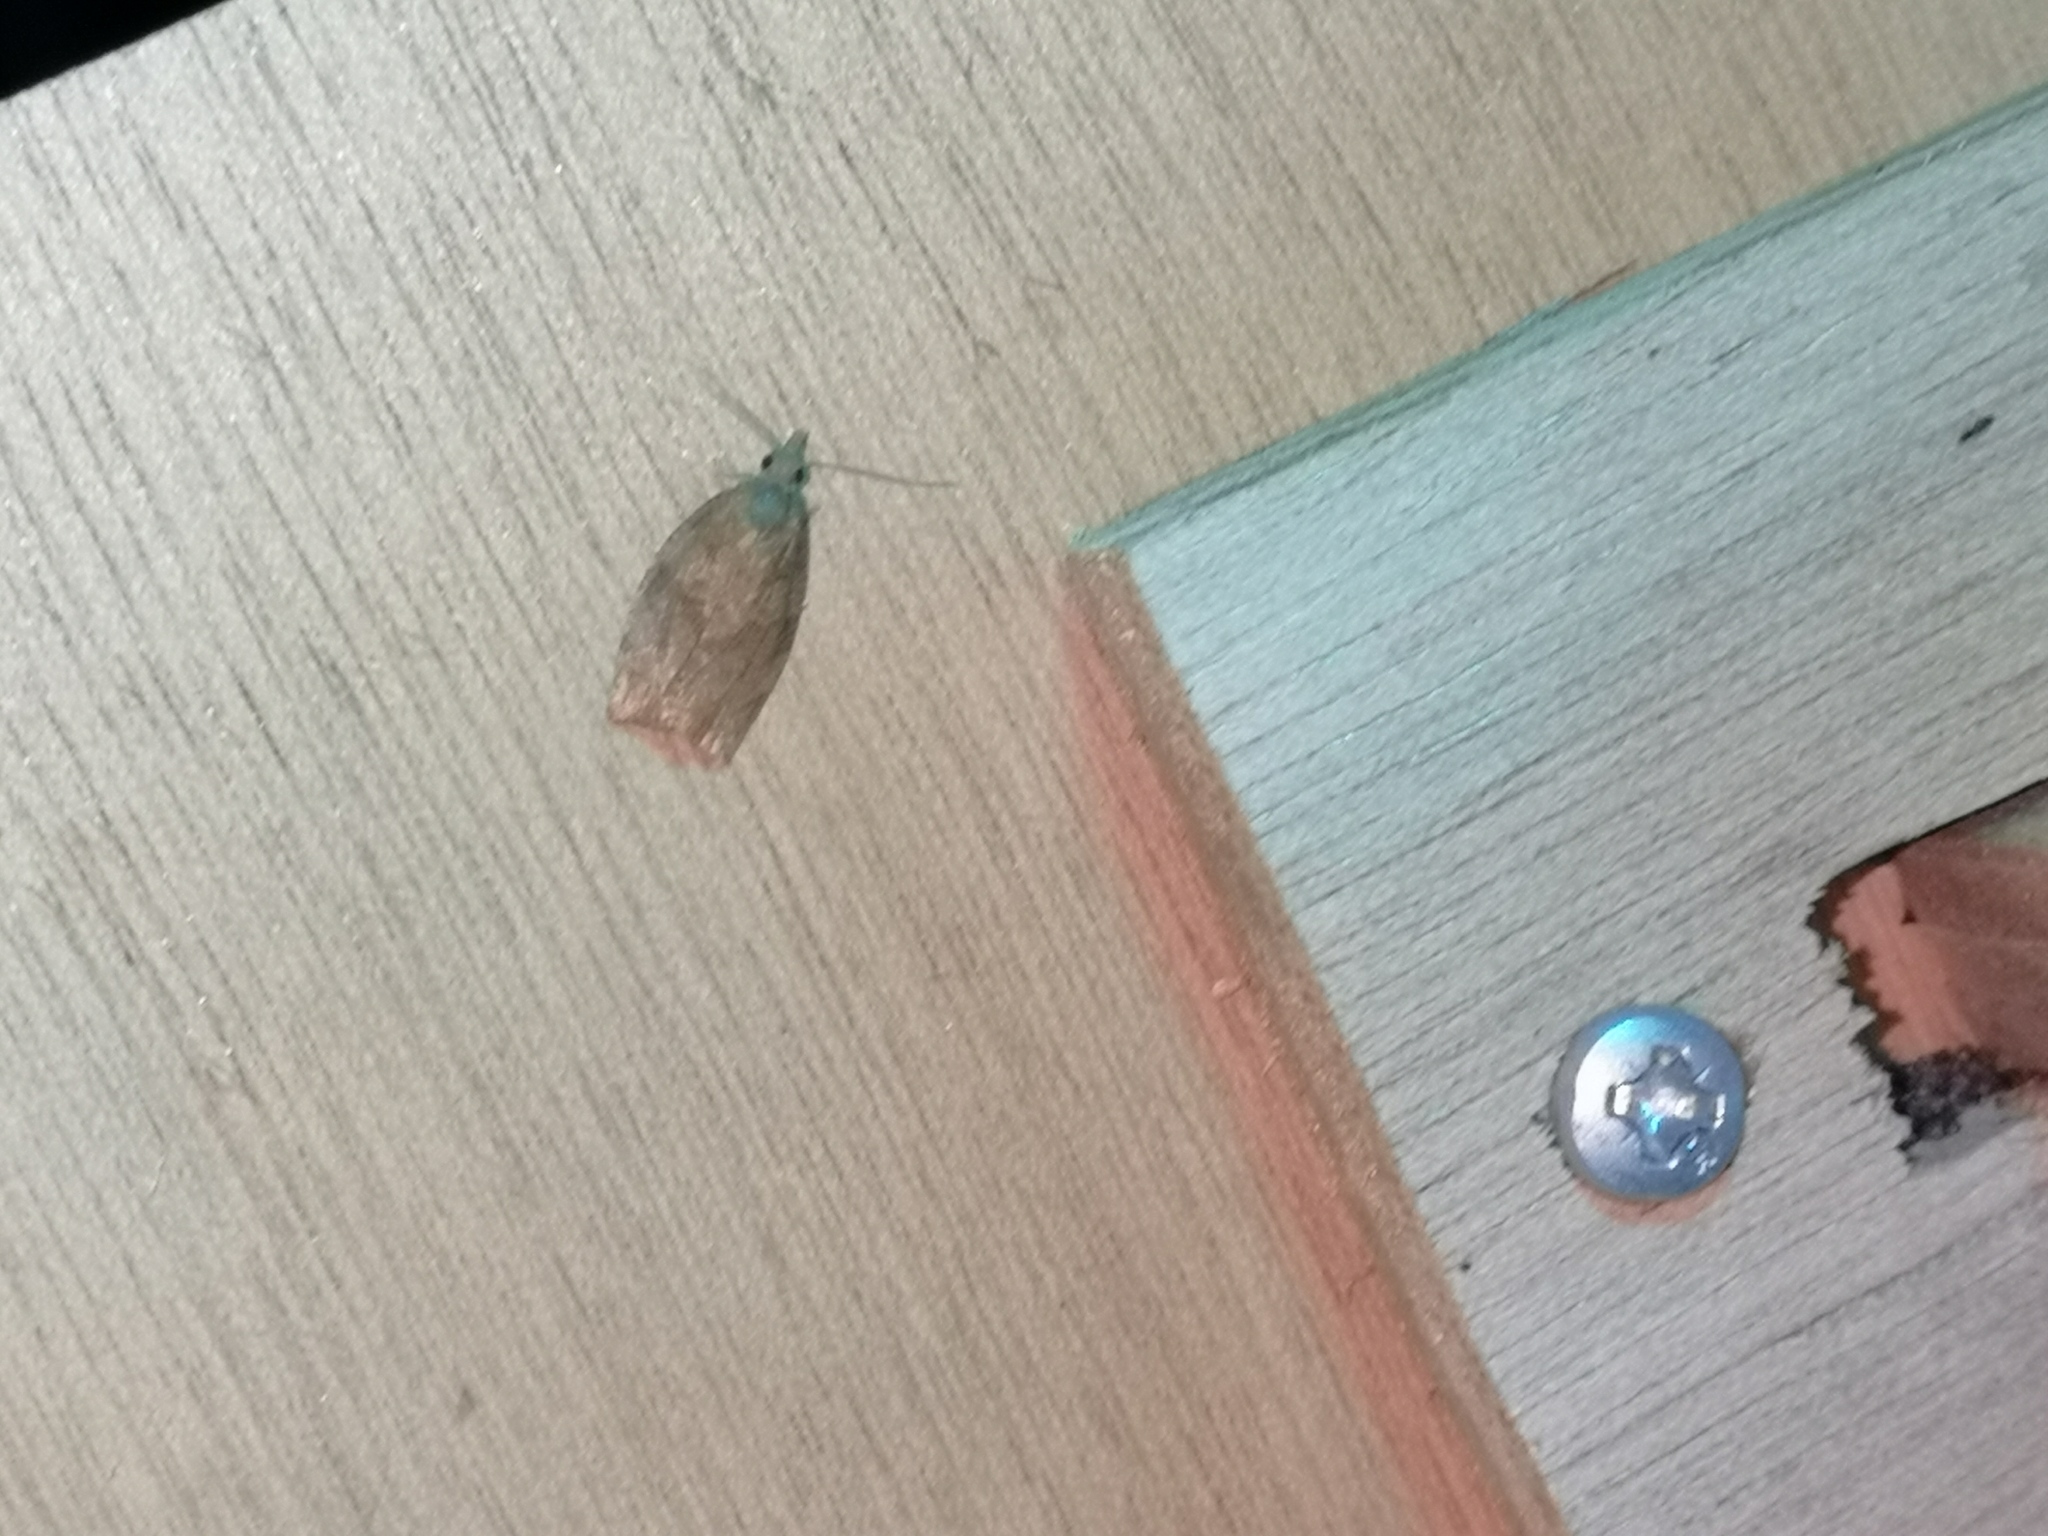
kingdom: Animalia
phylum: Arthropoda
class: Insecta
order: Lepidoptera
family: Tortricidae
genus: Pandemis
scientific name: Pandemis heparana
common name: Dark fruit-tree tortrix
